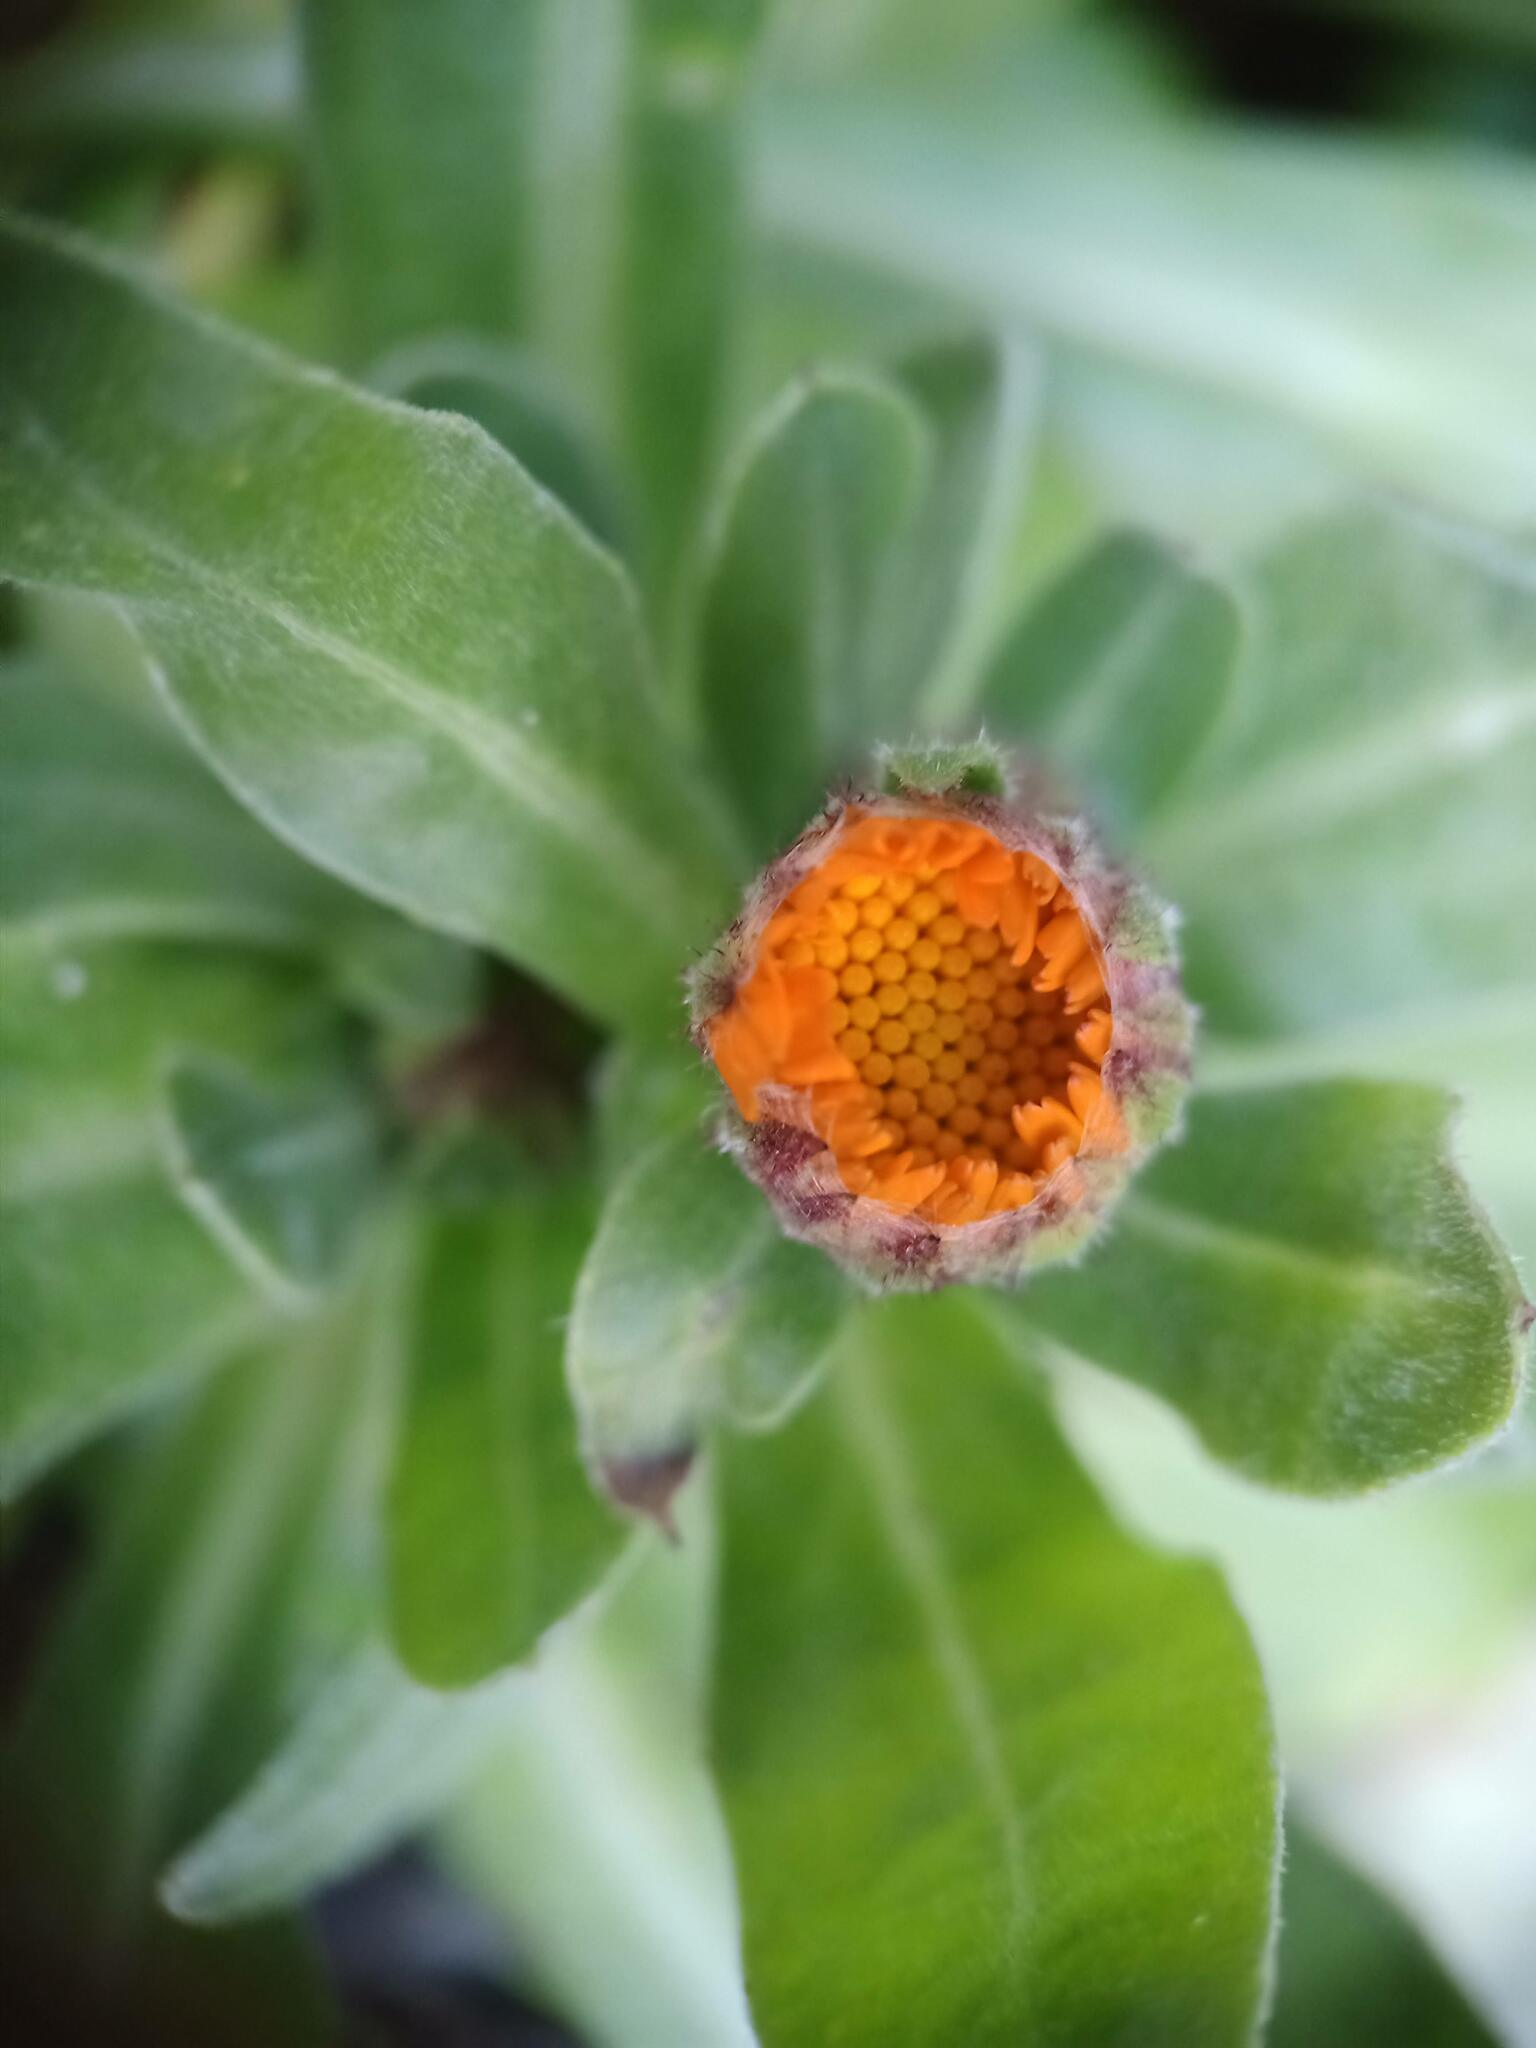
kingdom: Plantae
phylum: Tracheophyta
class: Magnoliopsida
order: Asterales
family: Asteraceae
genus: Calendula
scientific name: Calendula arvensis
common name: Field marigold
